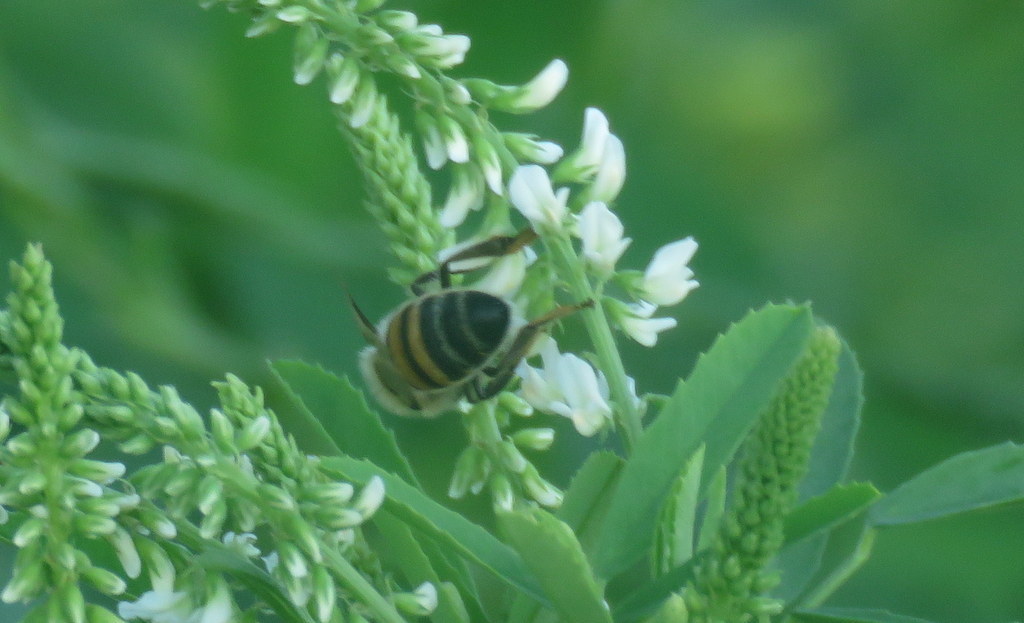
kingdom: Animalia
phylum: Arthropoda
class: Insecta
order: Hymenoptera
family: Apidae
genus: Apis
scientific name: Apis mellifera
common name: Honey bee
